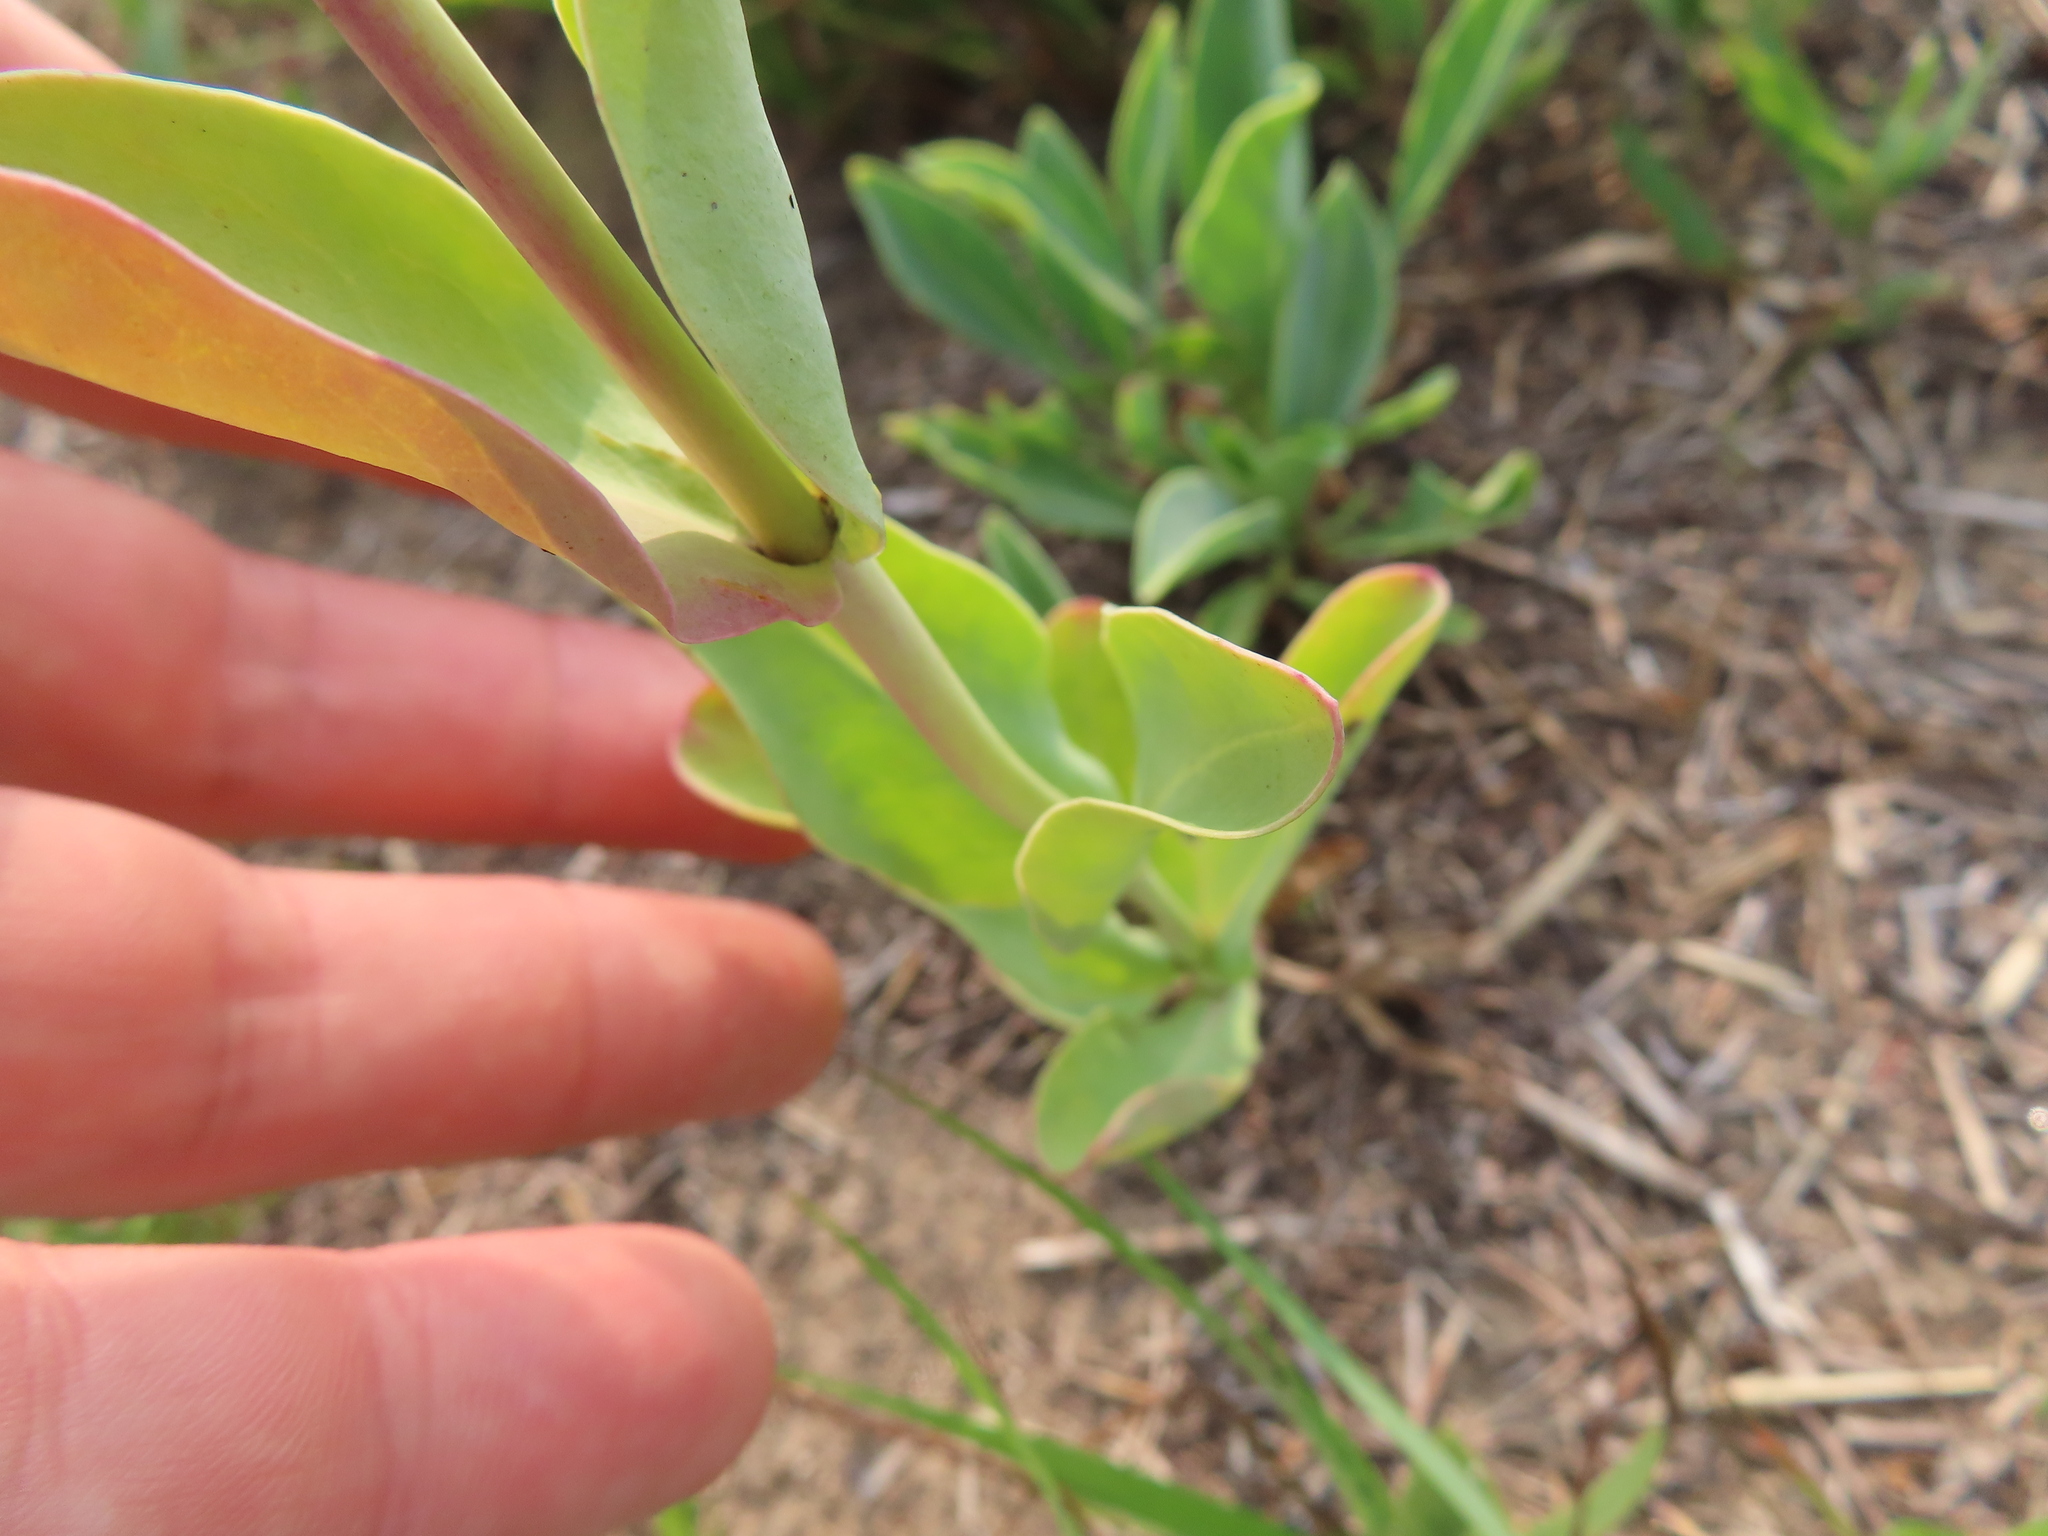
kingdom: Plantae
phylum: Tracheophyta
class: Magnoliopsida
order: Lamiales
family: Plantaginaceae
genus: Penstemon
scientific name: Penstemon
